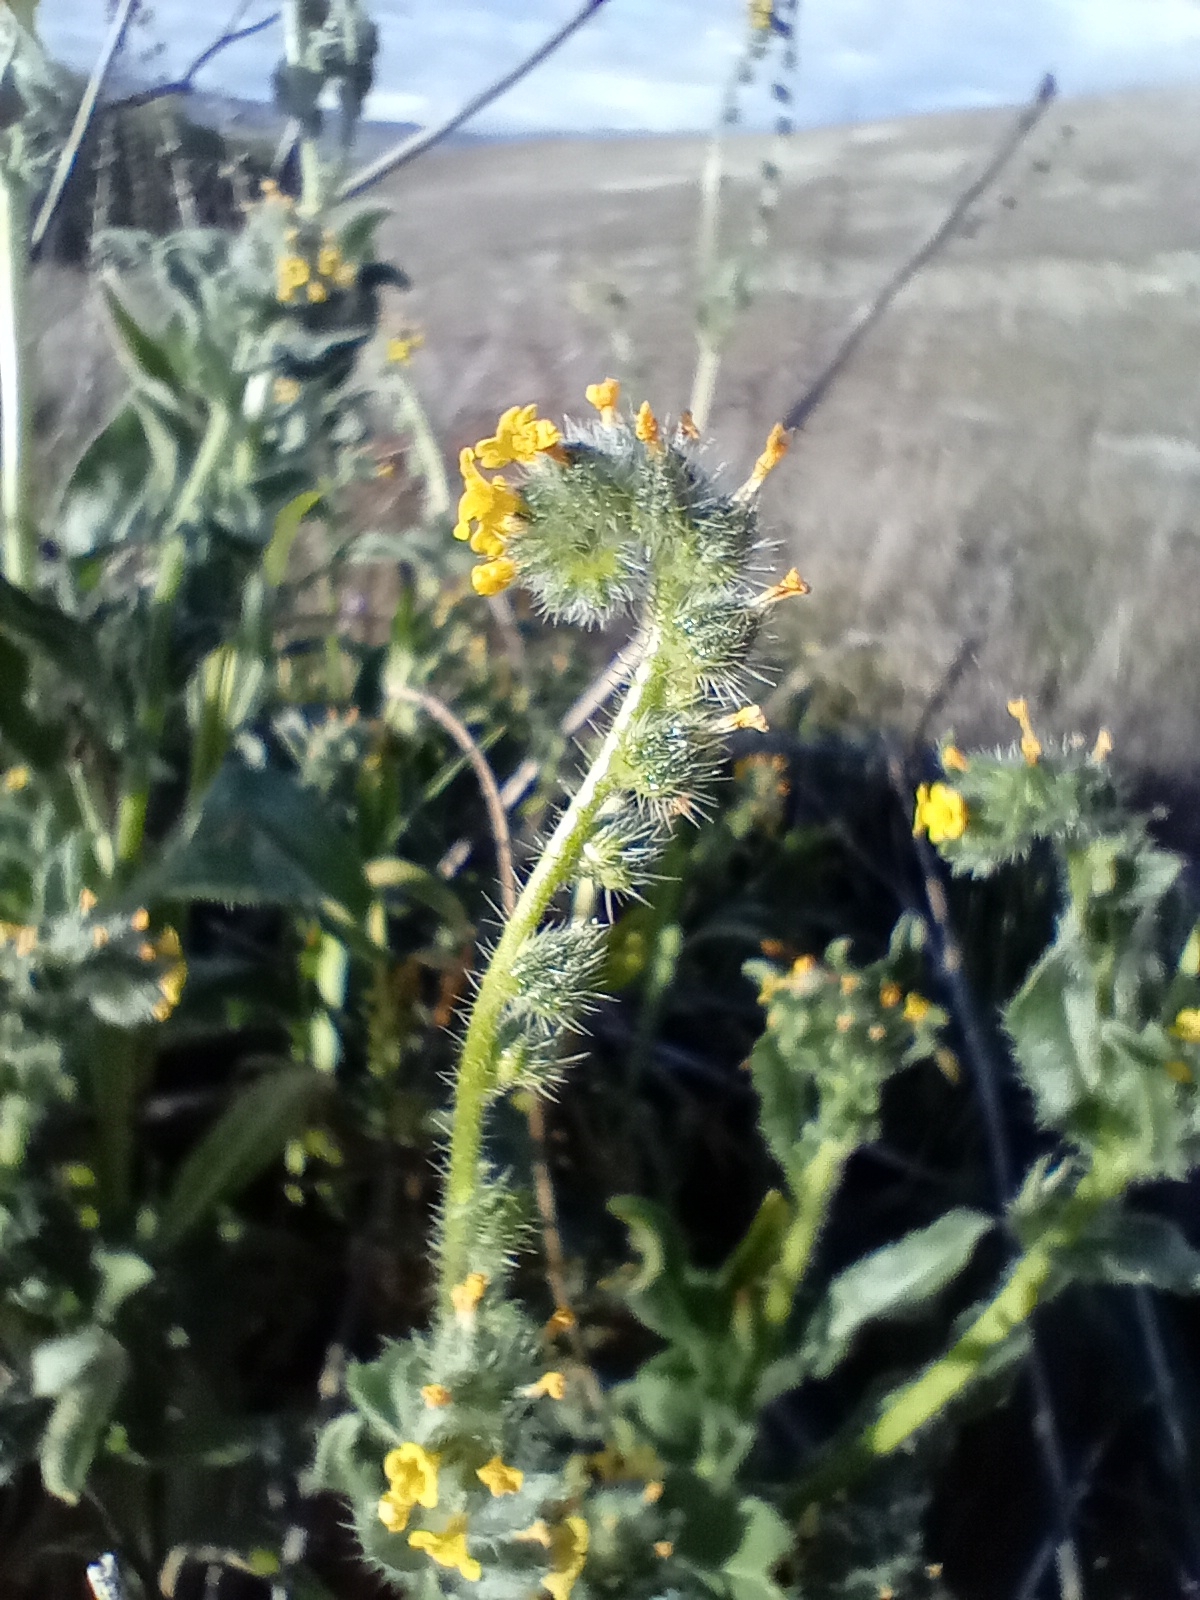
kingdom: Plantae
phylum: Tracheophyta
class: Magnoliopsida
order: Boraginales
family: Boraginaceae
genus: Amsinckia
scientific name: Amsinckia calycina
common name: Hairy fiddleneck
